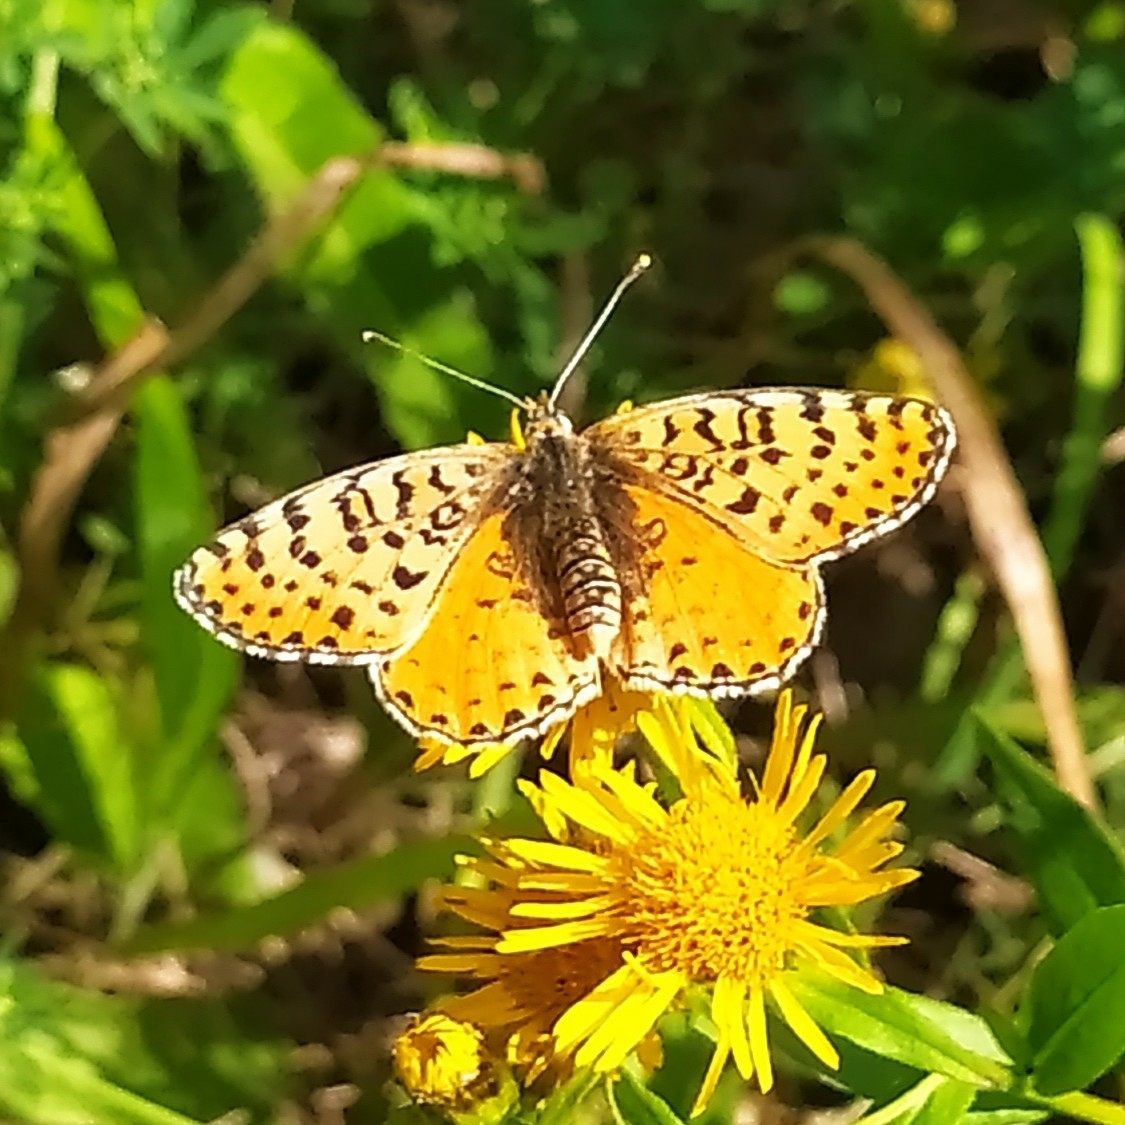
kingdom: Animalia
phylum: Arthropoda
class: Insecta
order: Lepidoptera
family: Nymphalidae
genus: Melitaea
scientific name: Melitaea didyma
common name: Spotted fritillary
